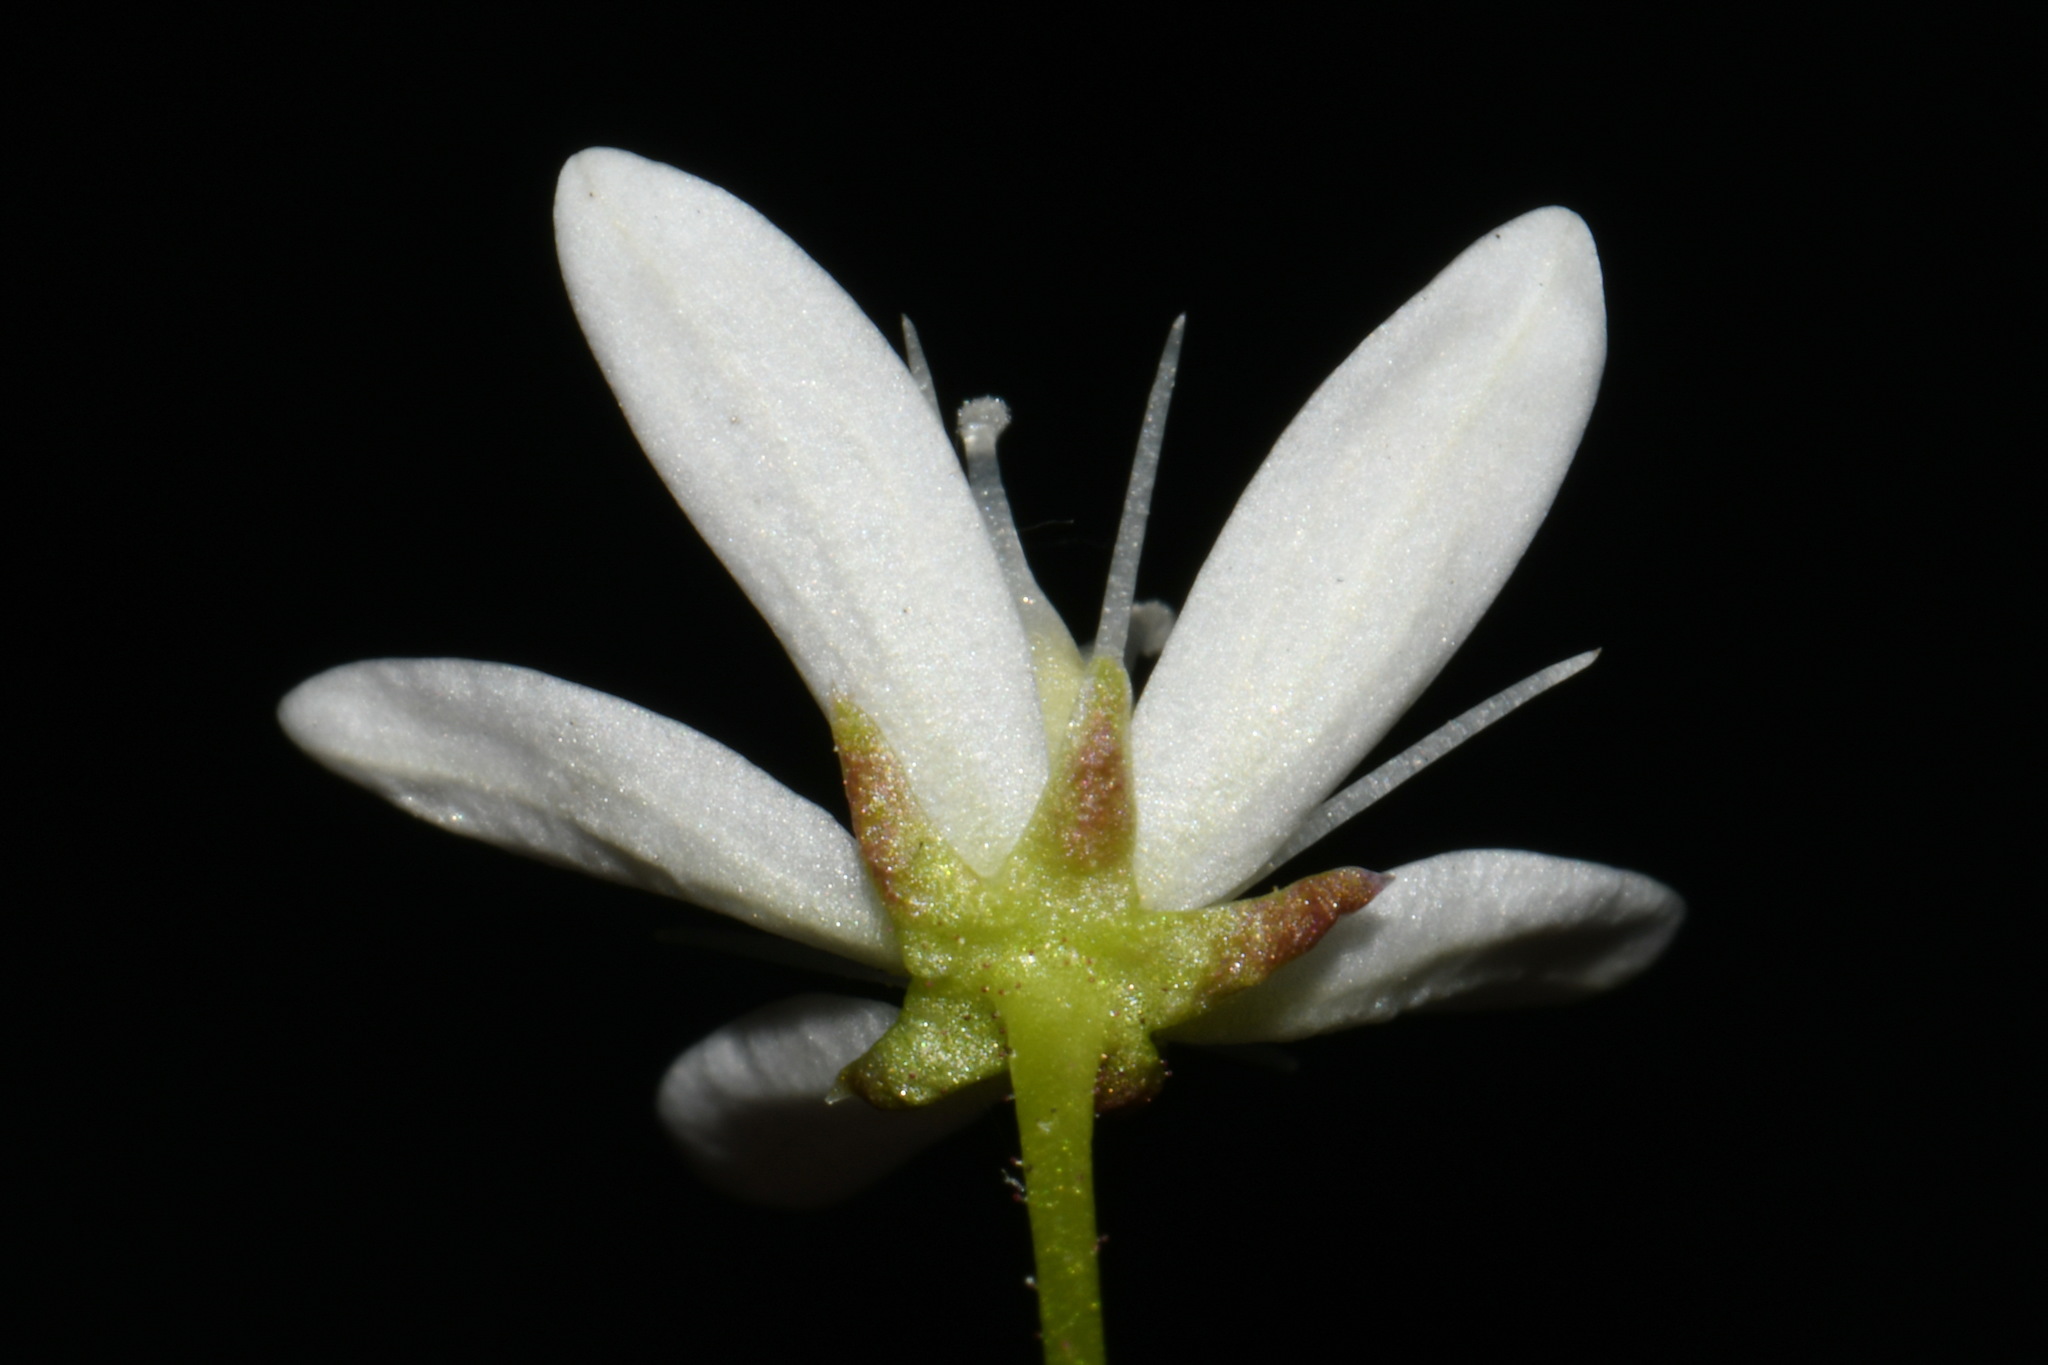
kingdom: Plantae
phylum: Tracheophyta
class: Magnoliopsida
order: Saxifragales
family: Saxifragaceae
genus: Saxifraga
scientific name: Saxifraga bronchialis
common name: Matted saxifrage
